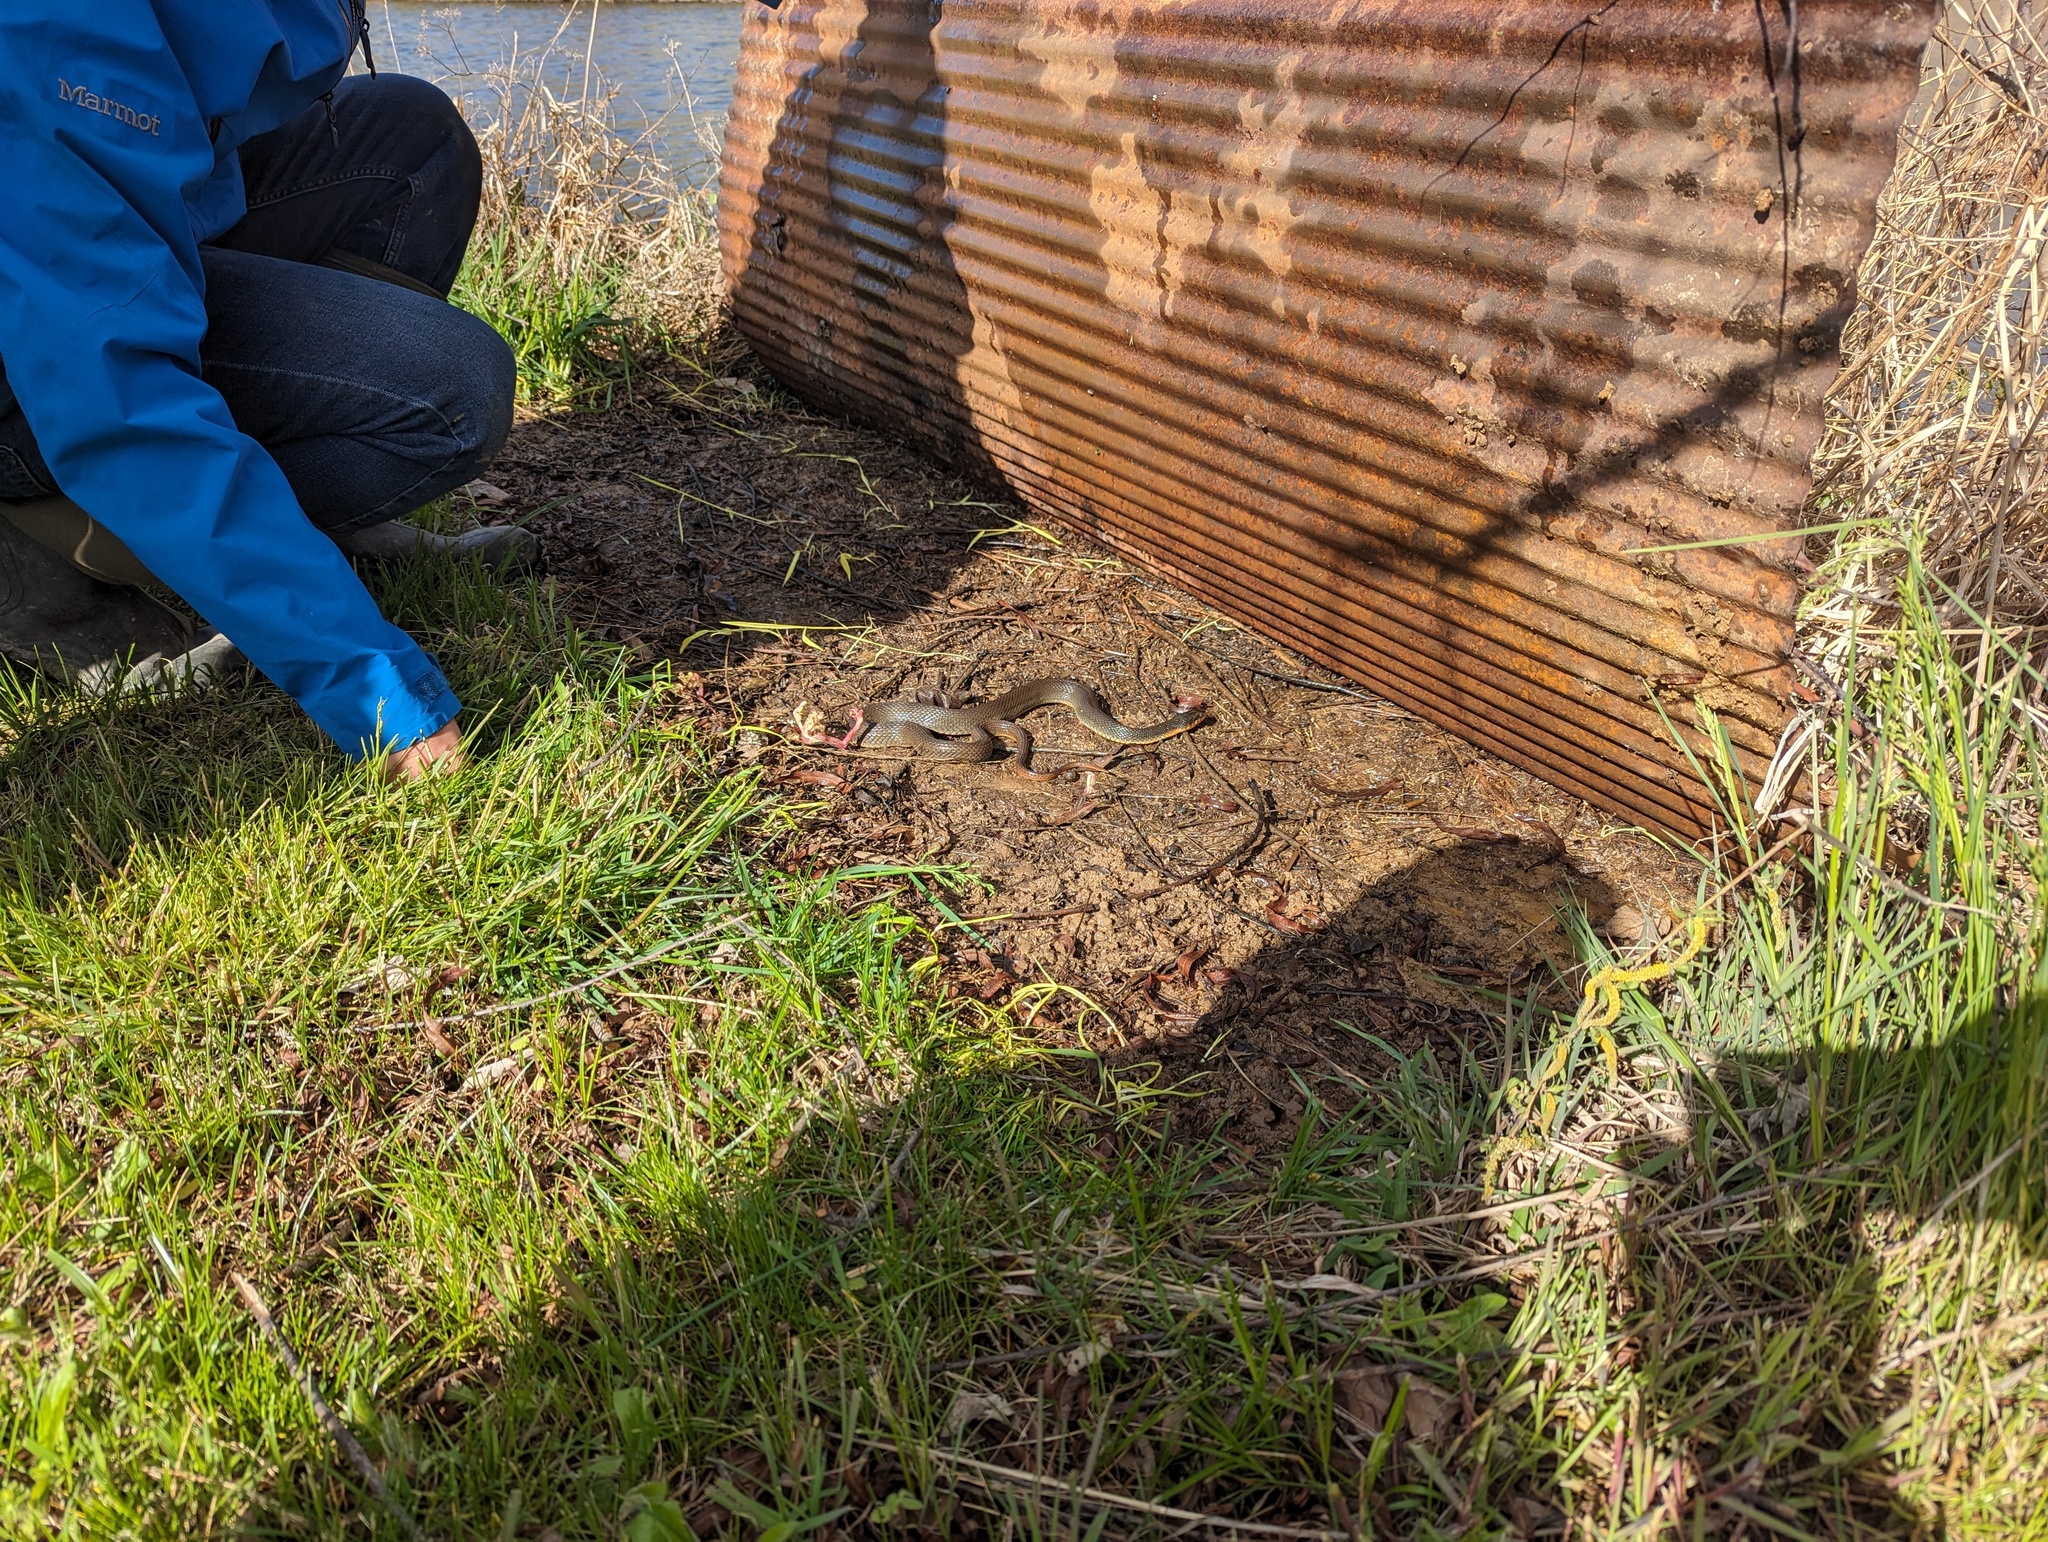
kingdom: Animalia
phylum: Chordata
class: Squamata
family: Colubridae
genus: Nerodia
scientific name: Nerodia erythrogaster
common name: Plainbelly water snake
